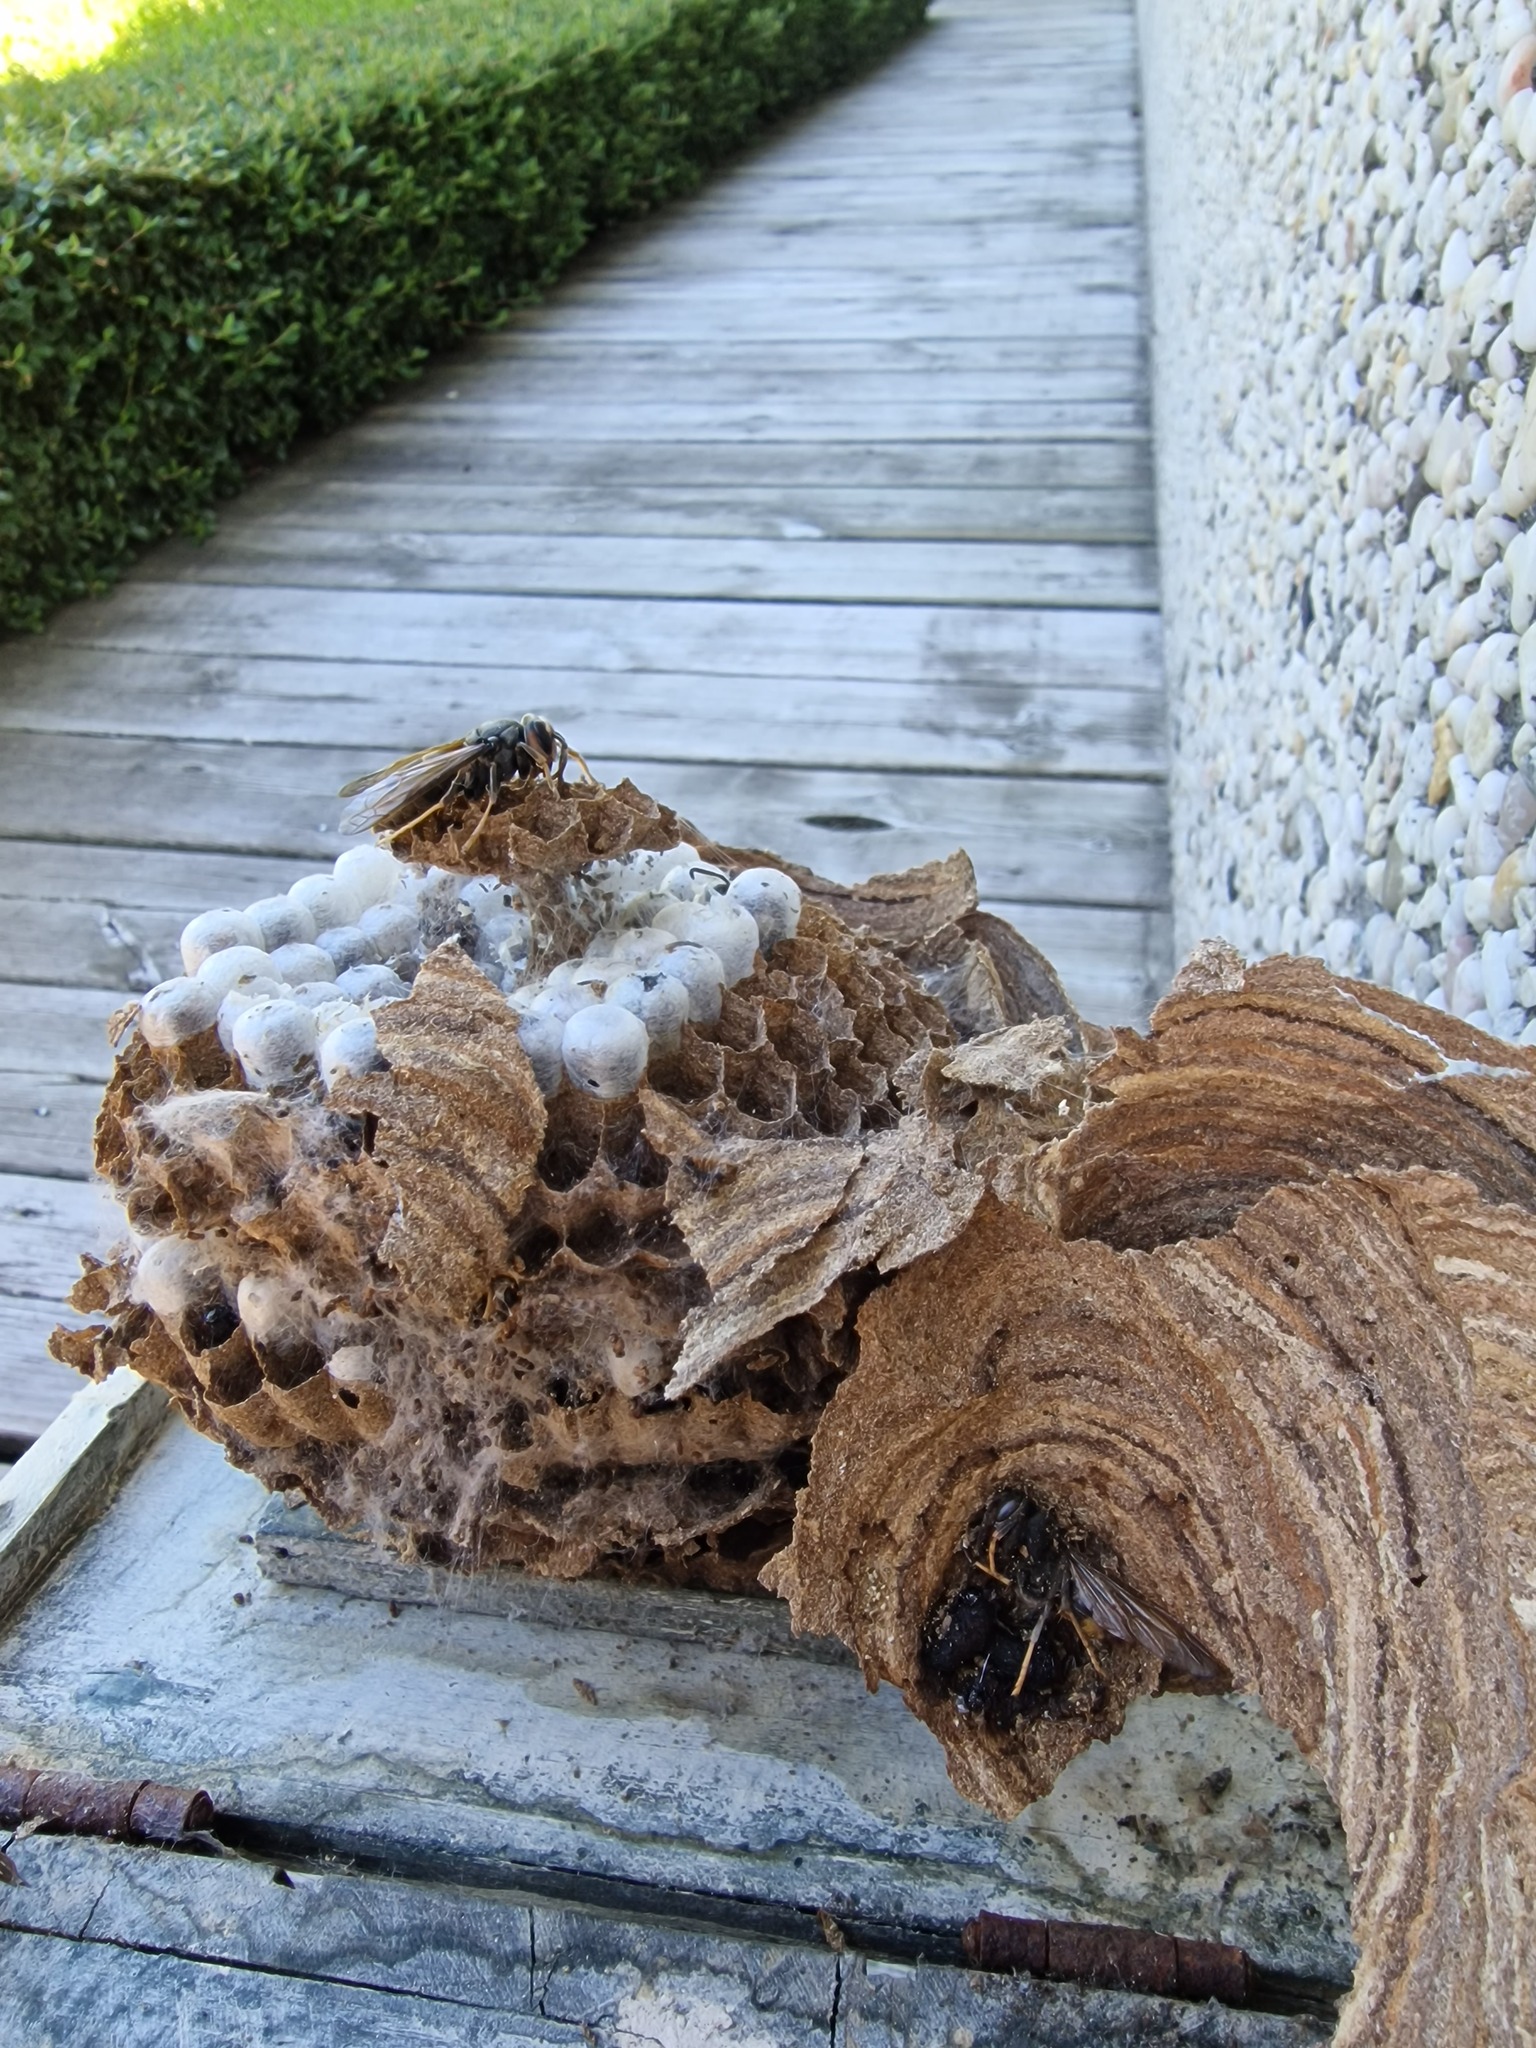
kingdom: Animalia
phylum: Arthropoda
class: Insecta
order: Hymenoptera
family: Vespidae
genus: Vespa
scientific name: Vespa velutina
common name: Asian hornet
